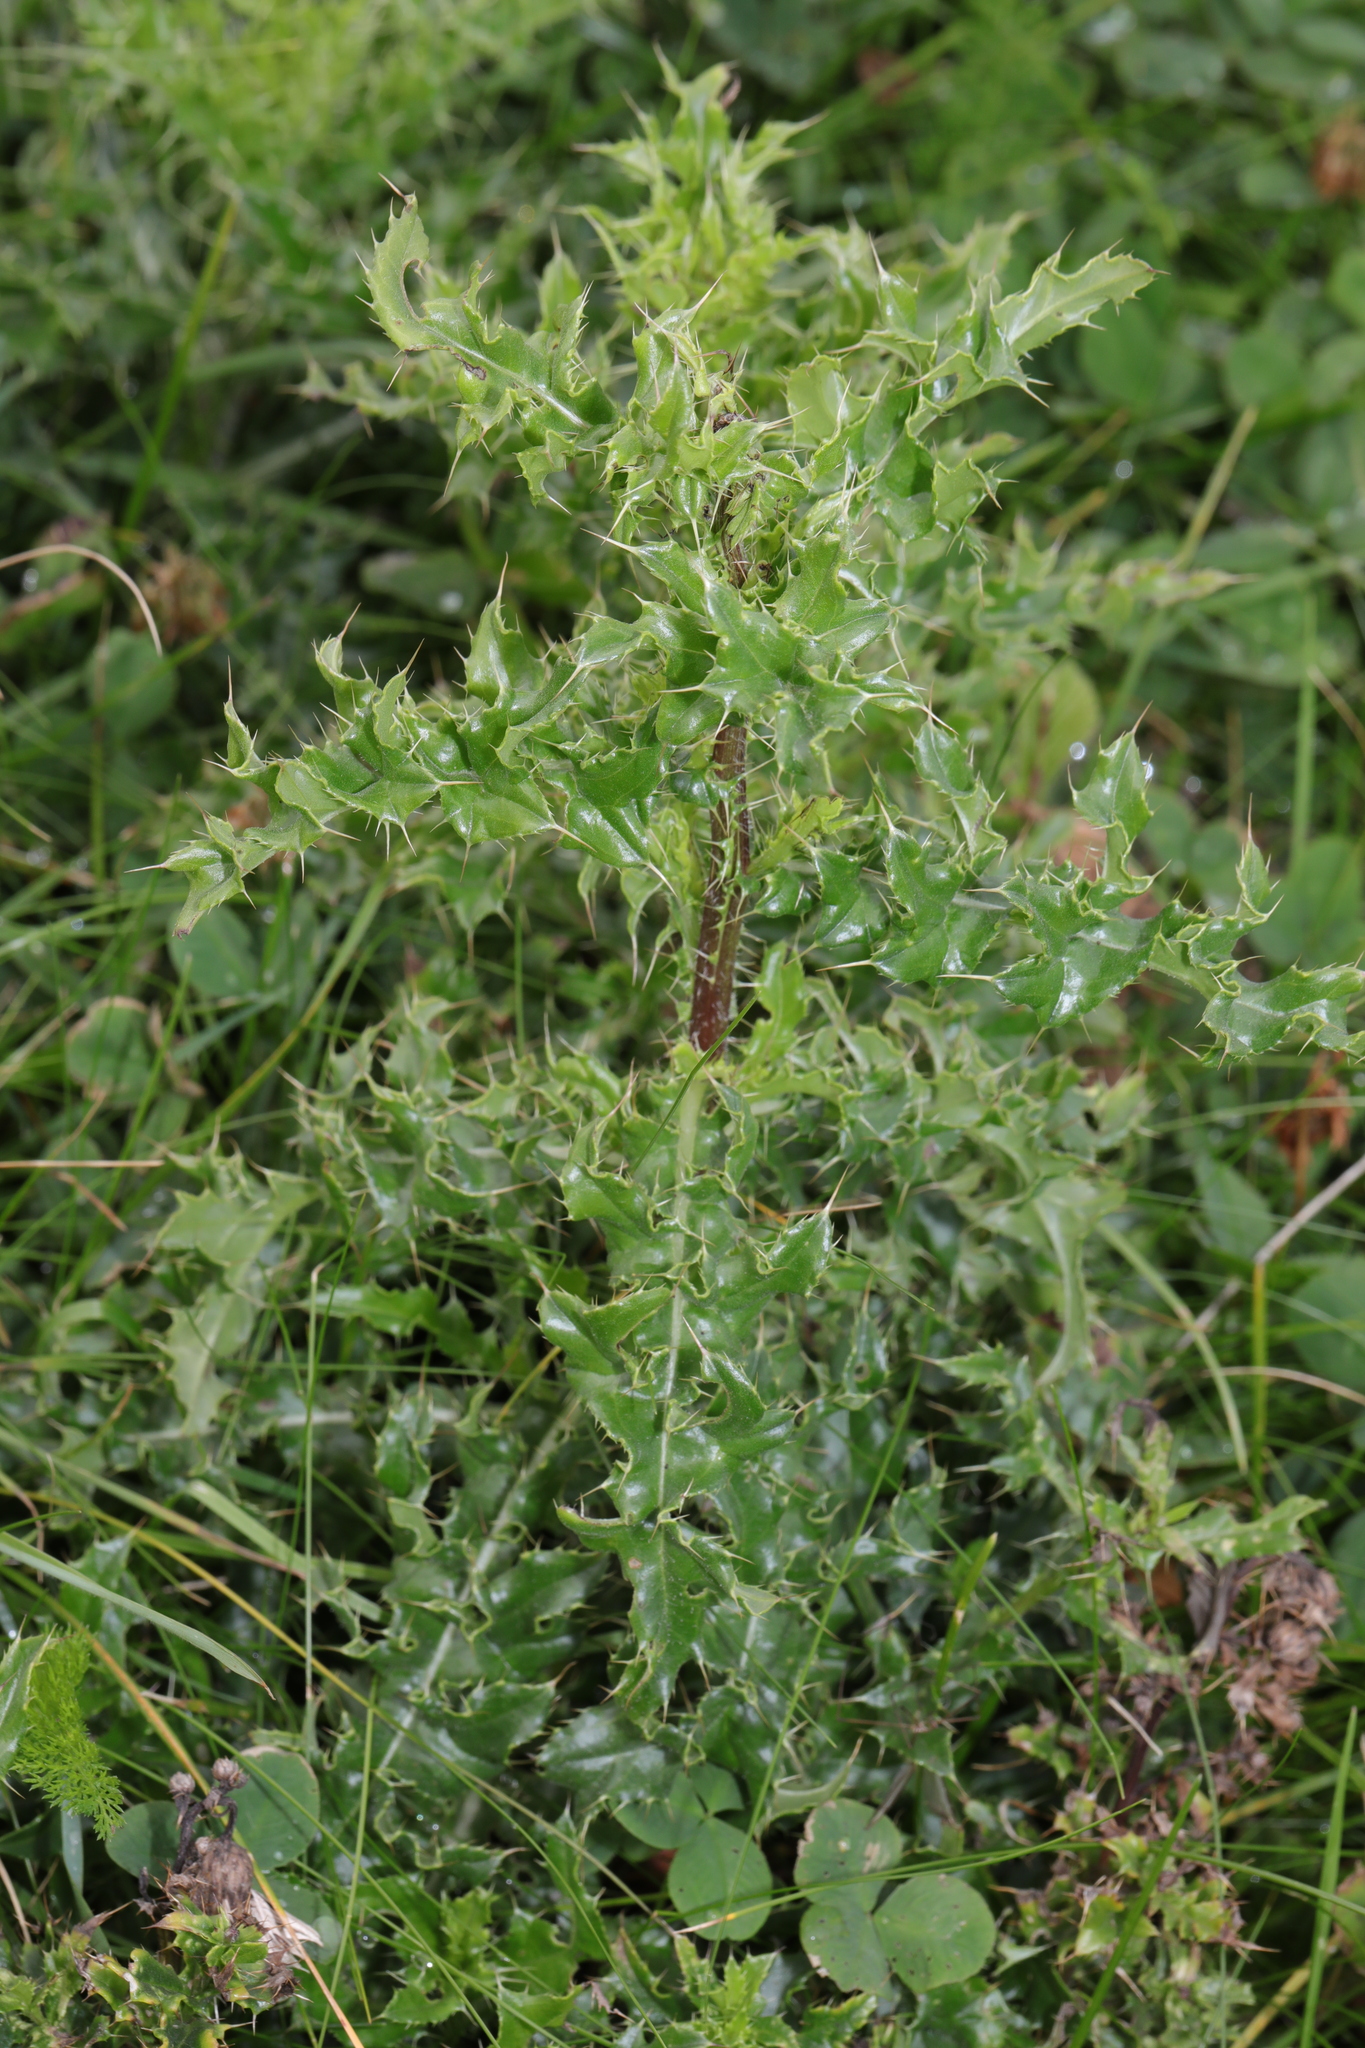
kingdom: Plantae
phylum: Tracheophyta
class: Magnoliopsida
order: Asterales
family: Asteraceae
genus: Cirsium
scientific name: Cirsium arvense
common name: Creeping thistle
